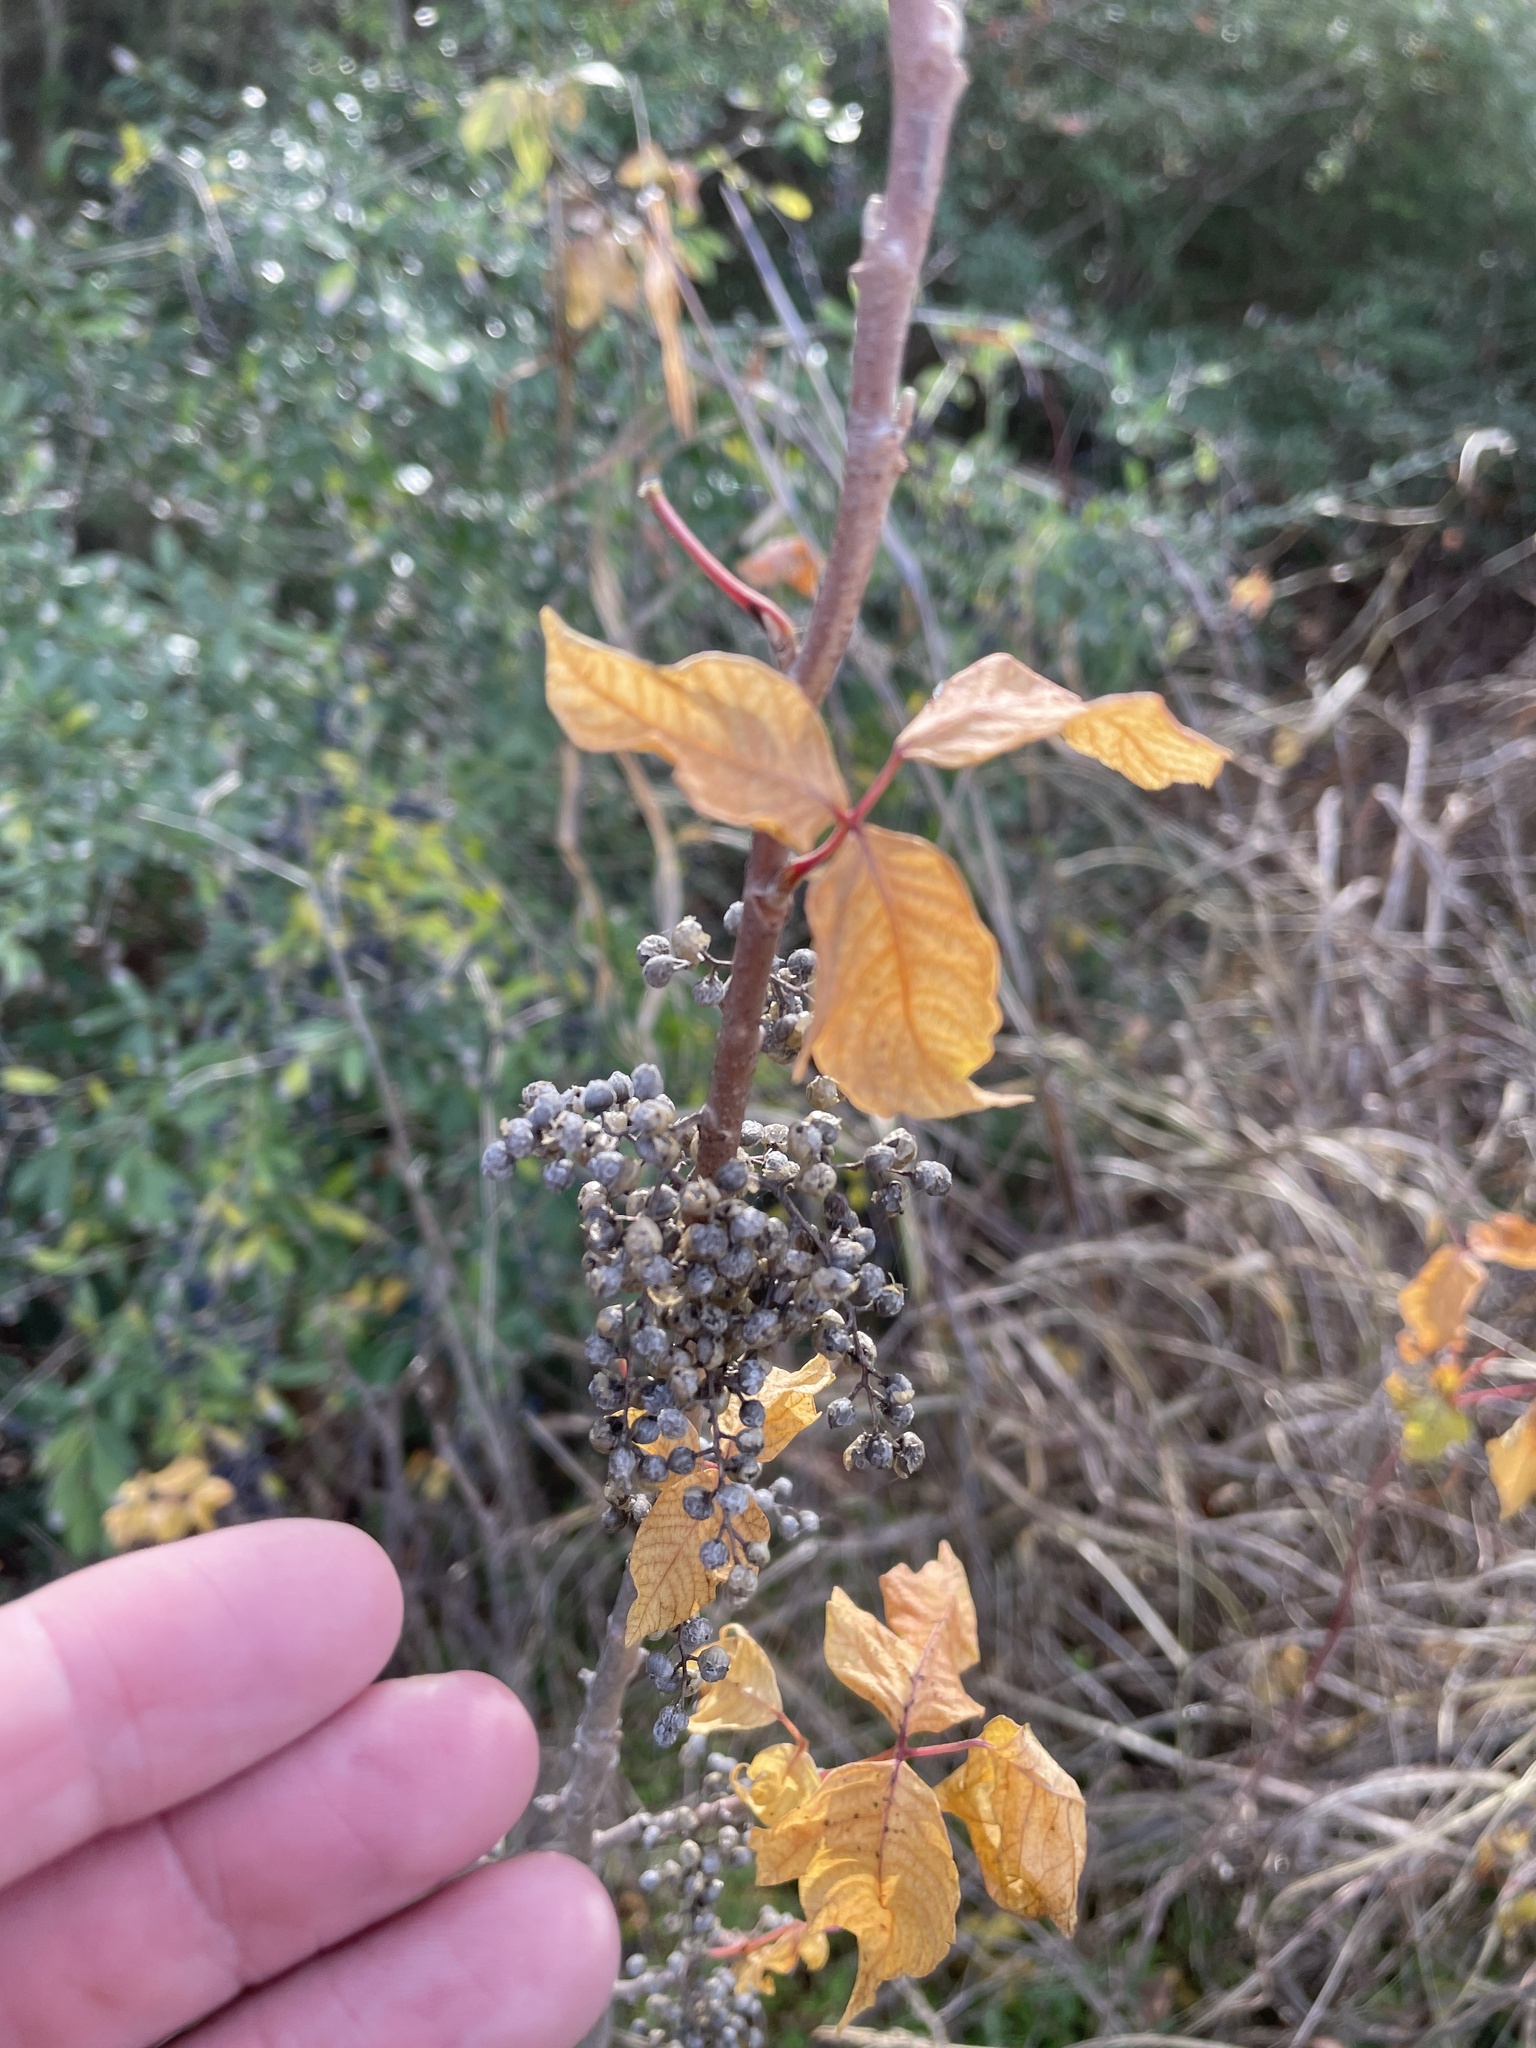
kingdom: Plantae
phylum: Tracheophyta
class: Magnoliopsida
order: Sapindales
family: Anacardiaceae
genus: Toxicodendron
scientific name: Toxicodendron radicans
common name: Poison ivy
